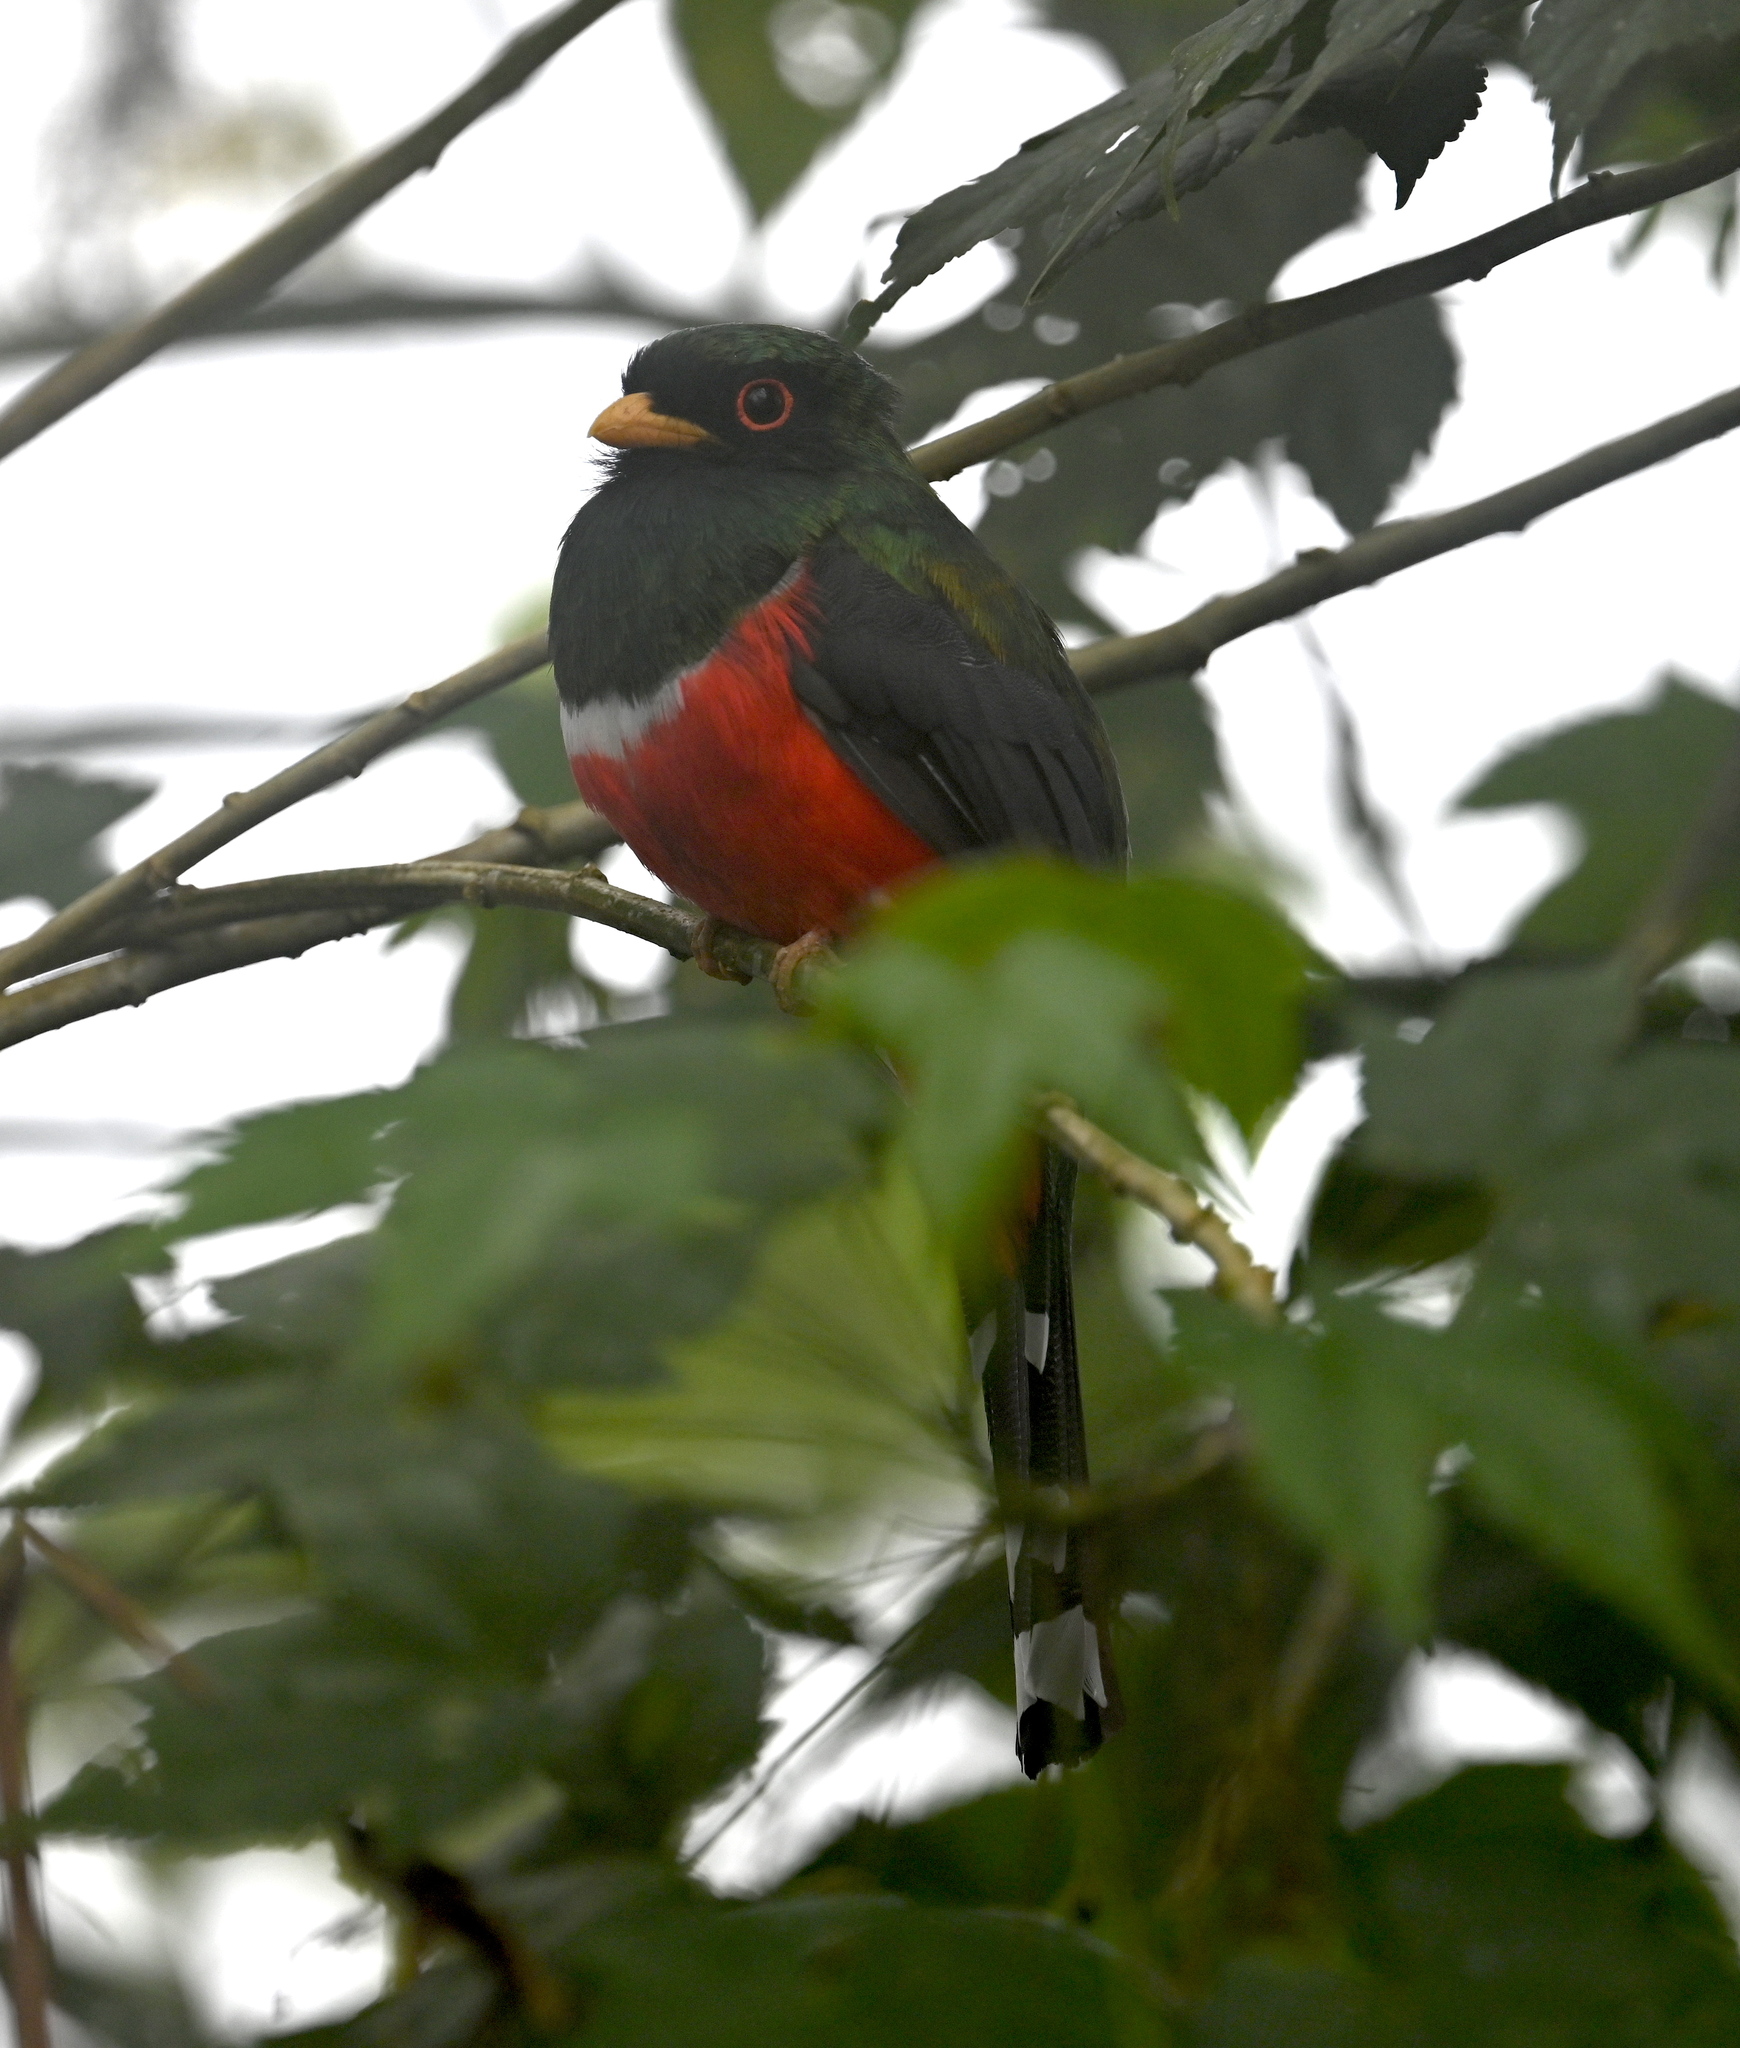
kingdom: Animalia
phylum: Chordata
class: Aves
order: Trogoniformes
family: Trogonidae
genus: Trogon
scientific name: Trogon personatus
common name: Masked trogon
